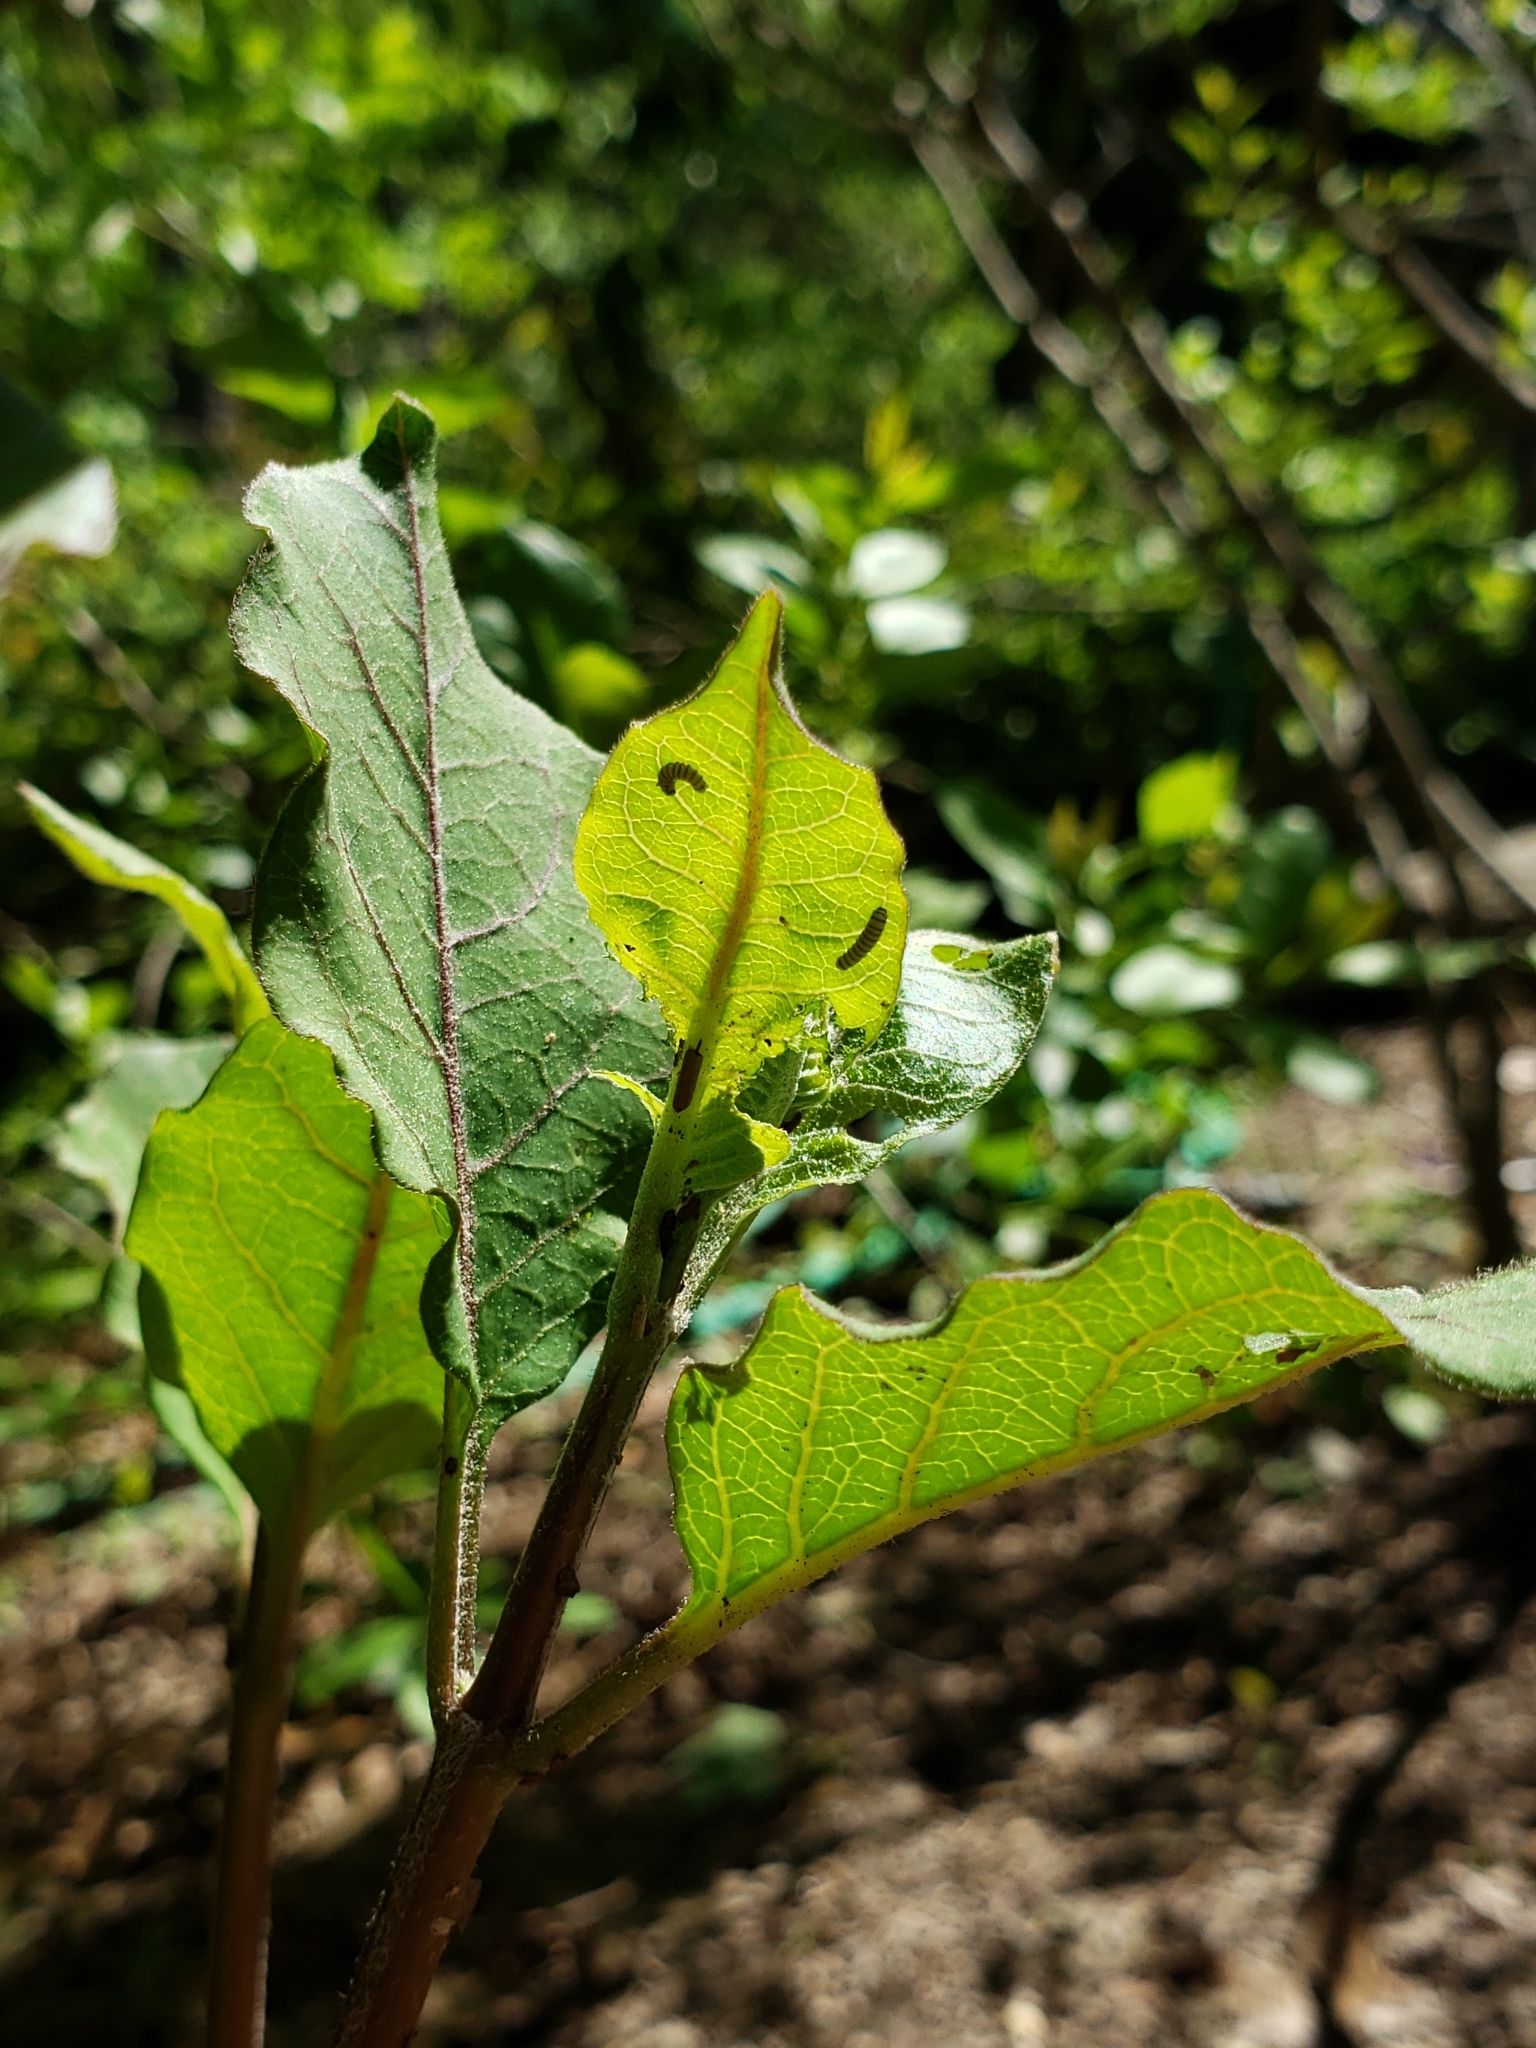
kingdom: Animalia
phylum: Arthropoda
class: Insecta
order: Lepidoptera
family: Nymphalidae
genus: Danaus
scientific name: Danaus plexippus
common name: Monarch
